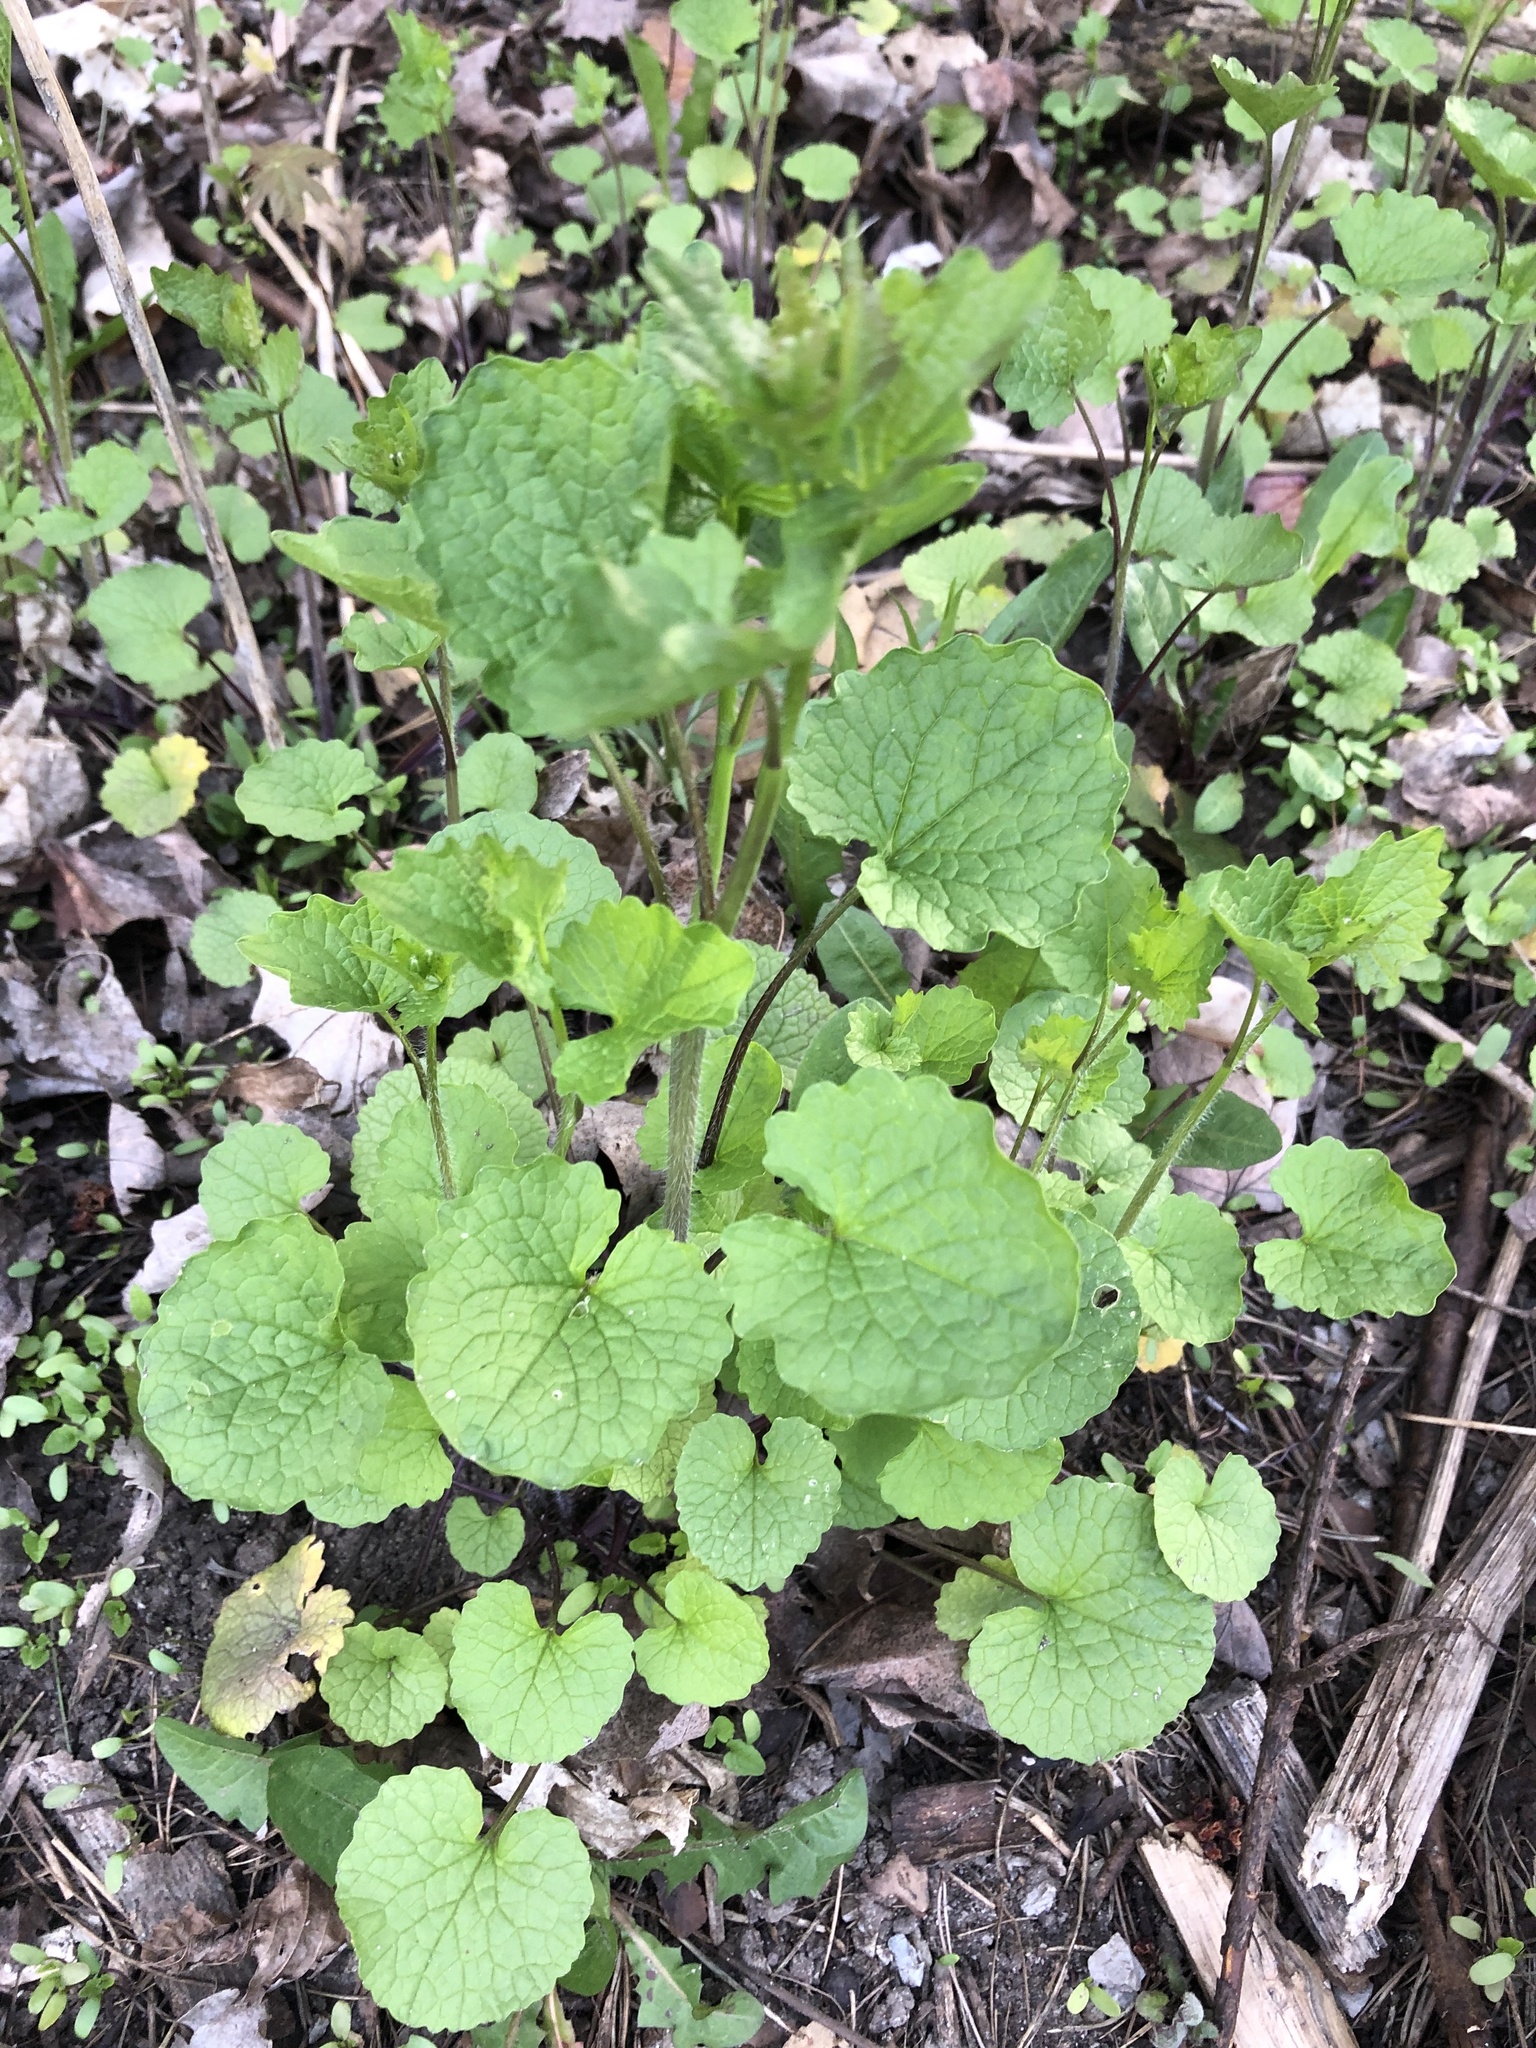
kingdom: Plantae
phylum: Tracheophyta
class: Magnoliopsida
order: Brassicales
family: Brassicaceae
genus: Alliaria
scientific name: Alliaria petiolata
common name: Garlic mustard
